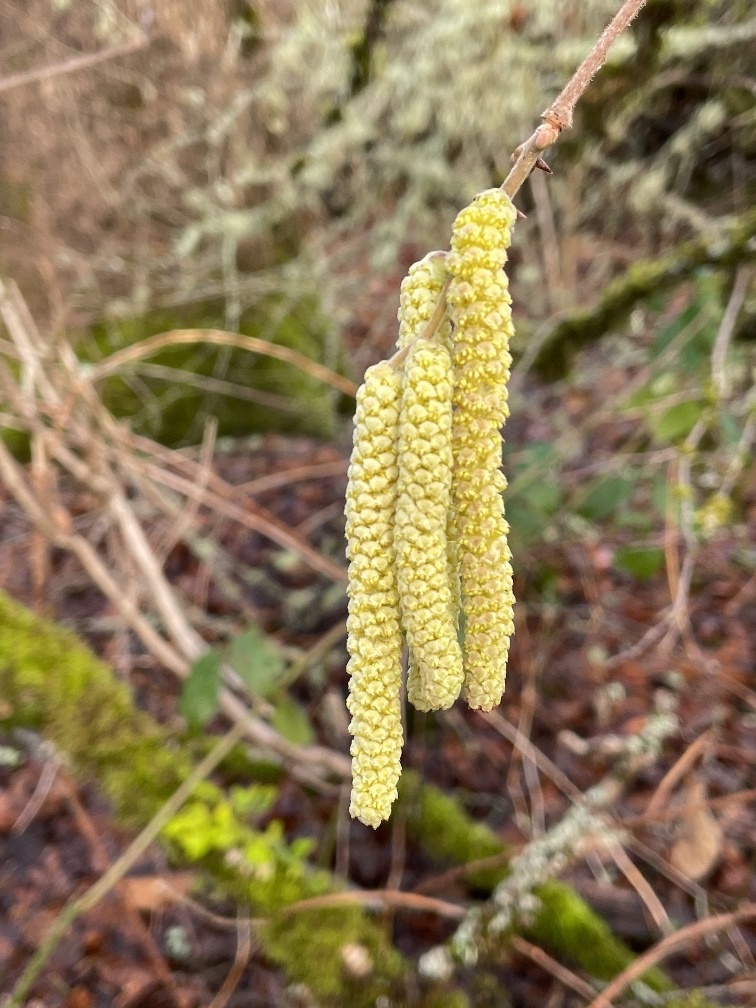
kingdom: Plantae
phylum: Tracheophyta
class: Magnoliopsida
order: Fagales
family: Betulaceae
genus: Corylus
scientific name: Corylus avellana
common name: European hazel
